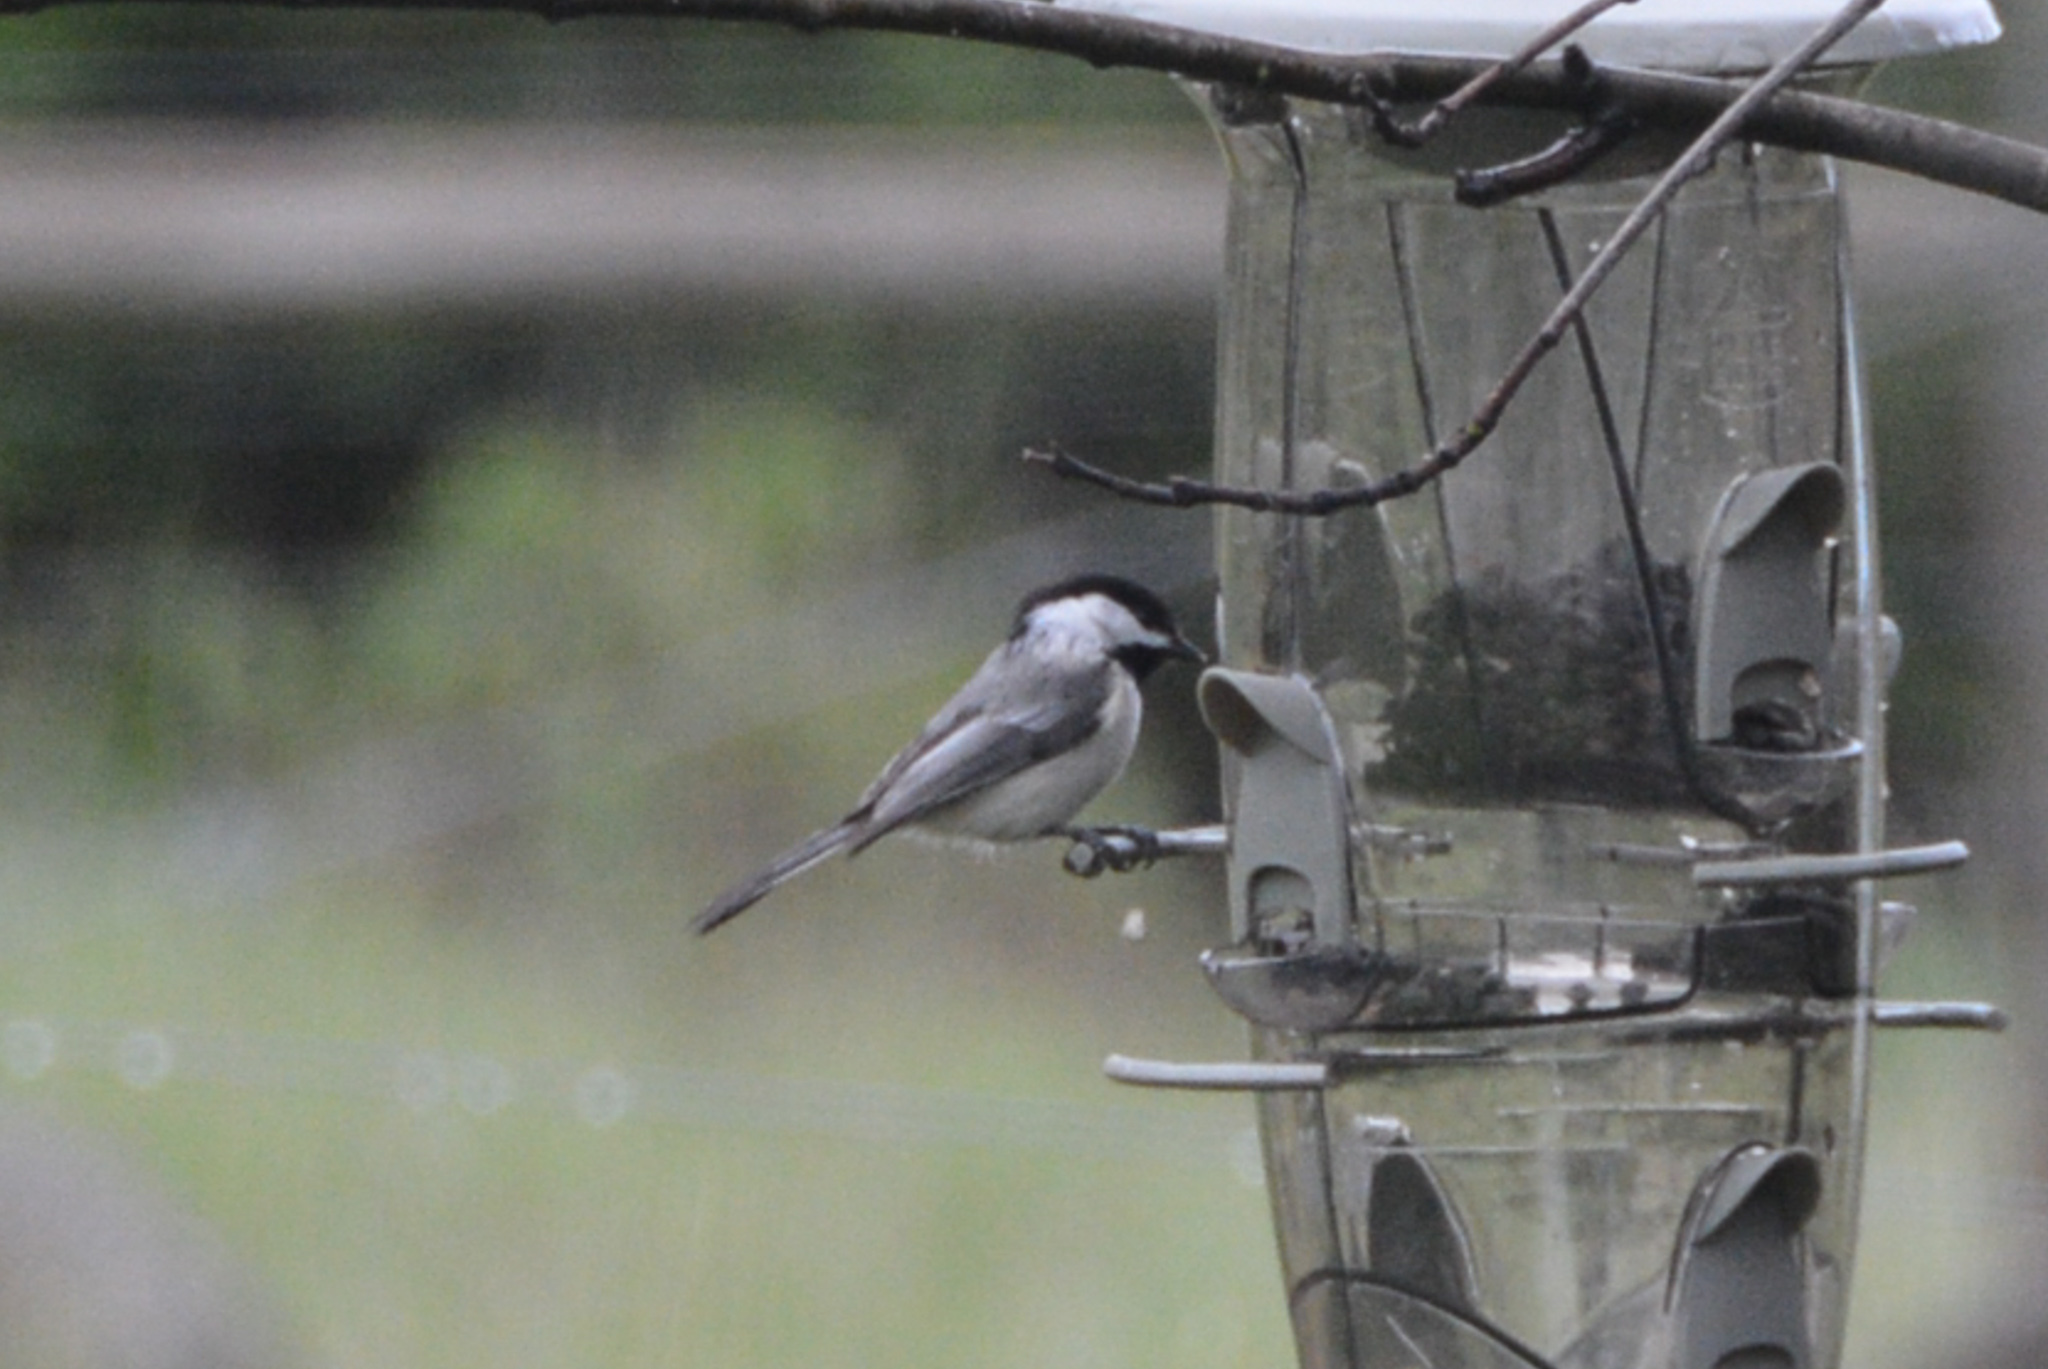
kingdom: Animalia
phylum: Chordata
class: Aves
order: Passeriformes
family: Paridae
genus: Poecile
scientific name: Poecile atricapillus
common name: Black-capped chickadee
